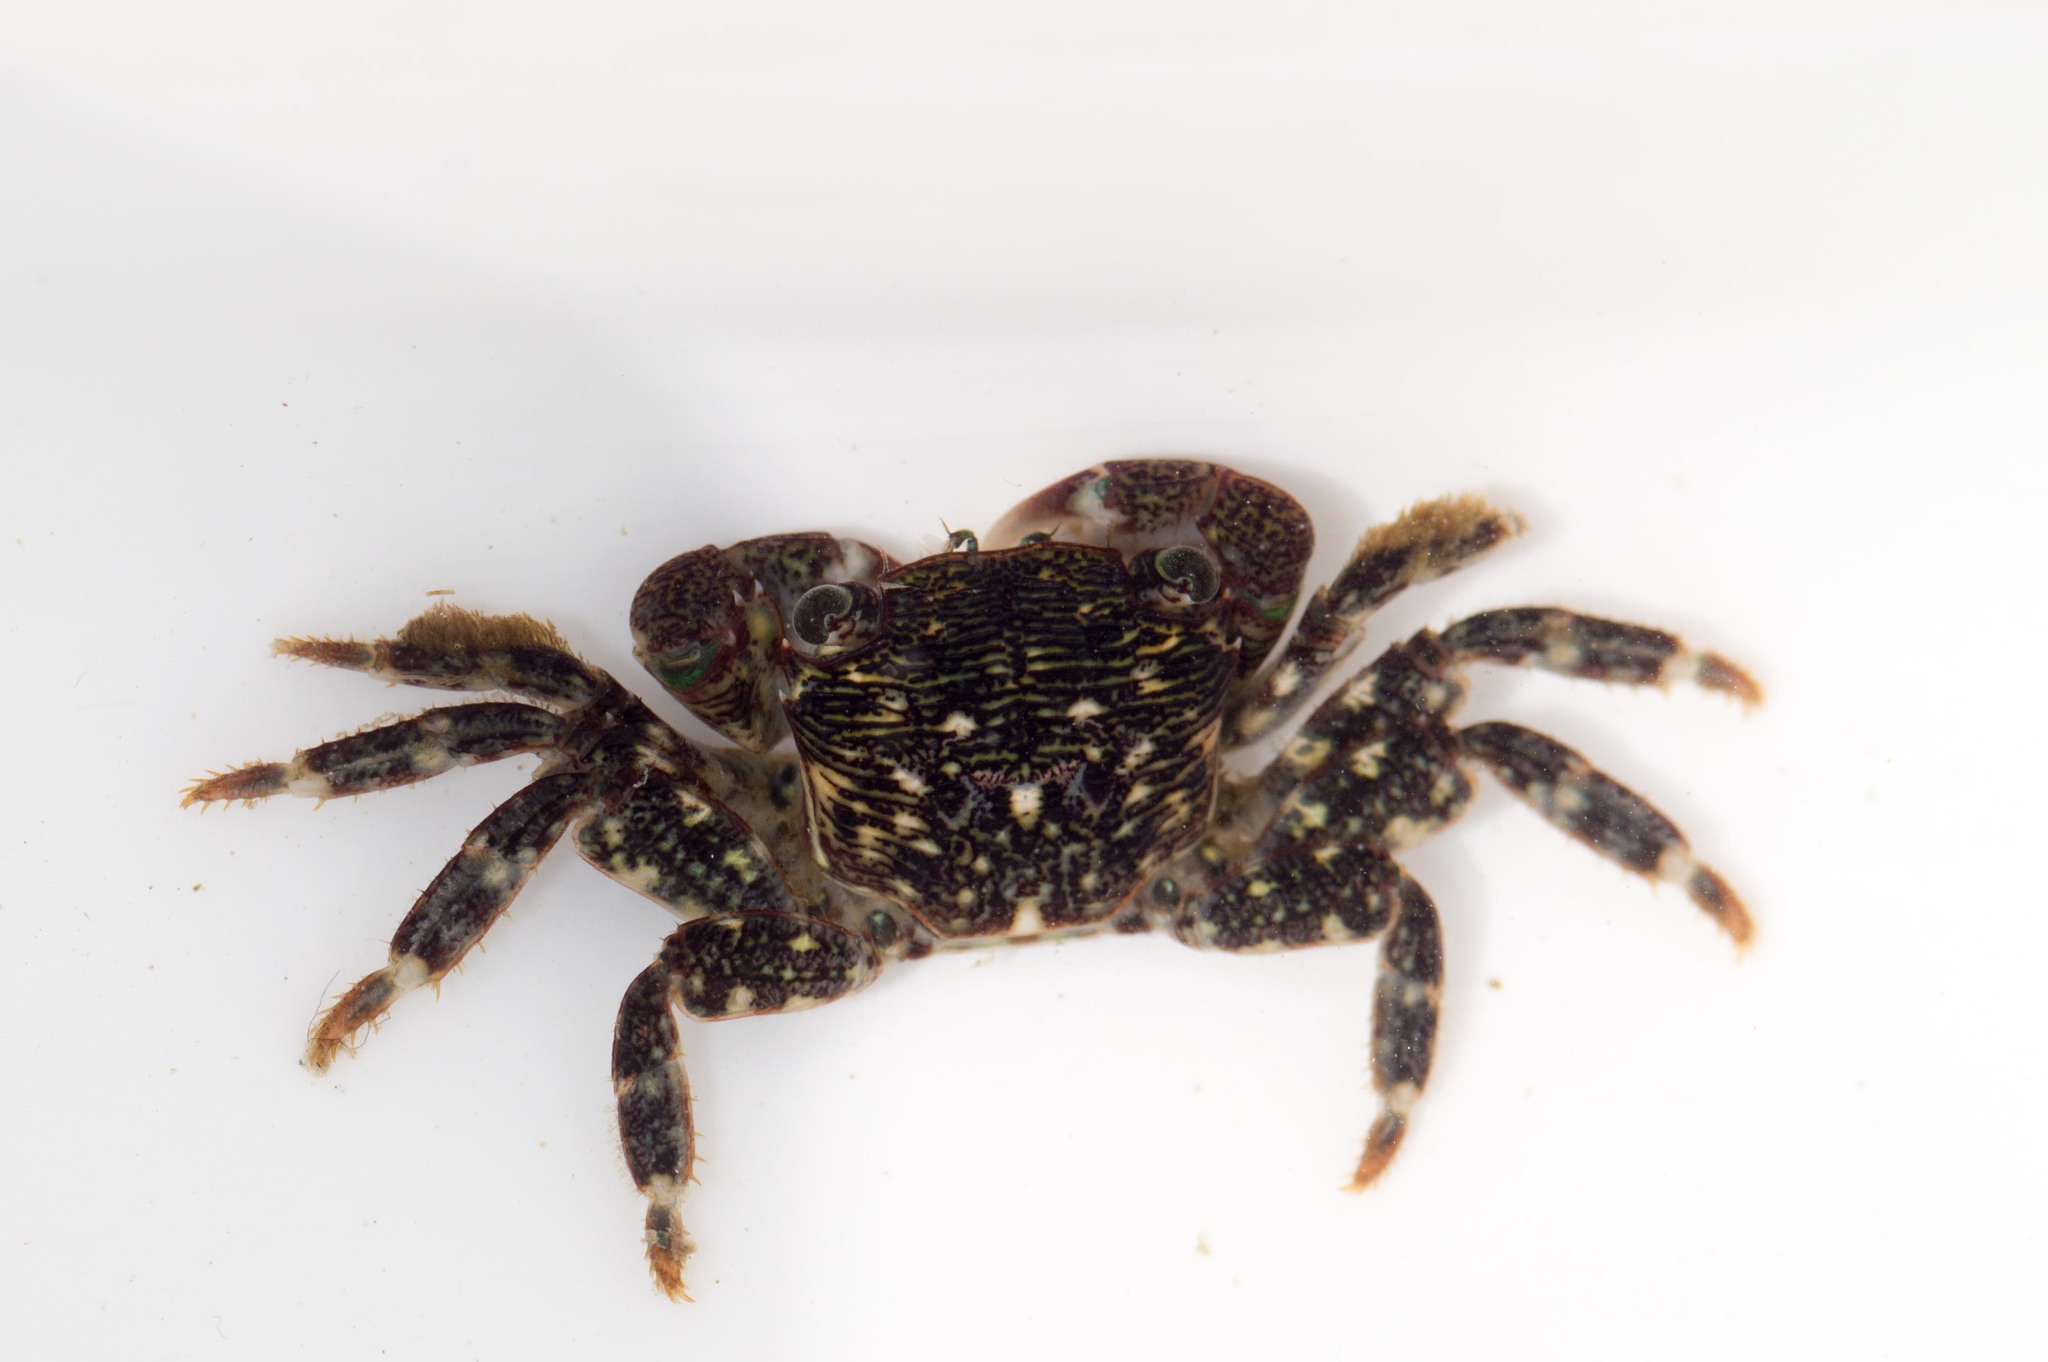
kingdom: Animalia
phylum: Arthropoda
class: Malacostraca
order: Decapoda
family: Grapsidae
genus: Pachygrapsus
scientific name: Pachygrapsus crassipes
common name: Striped shore crab
